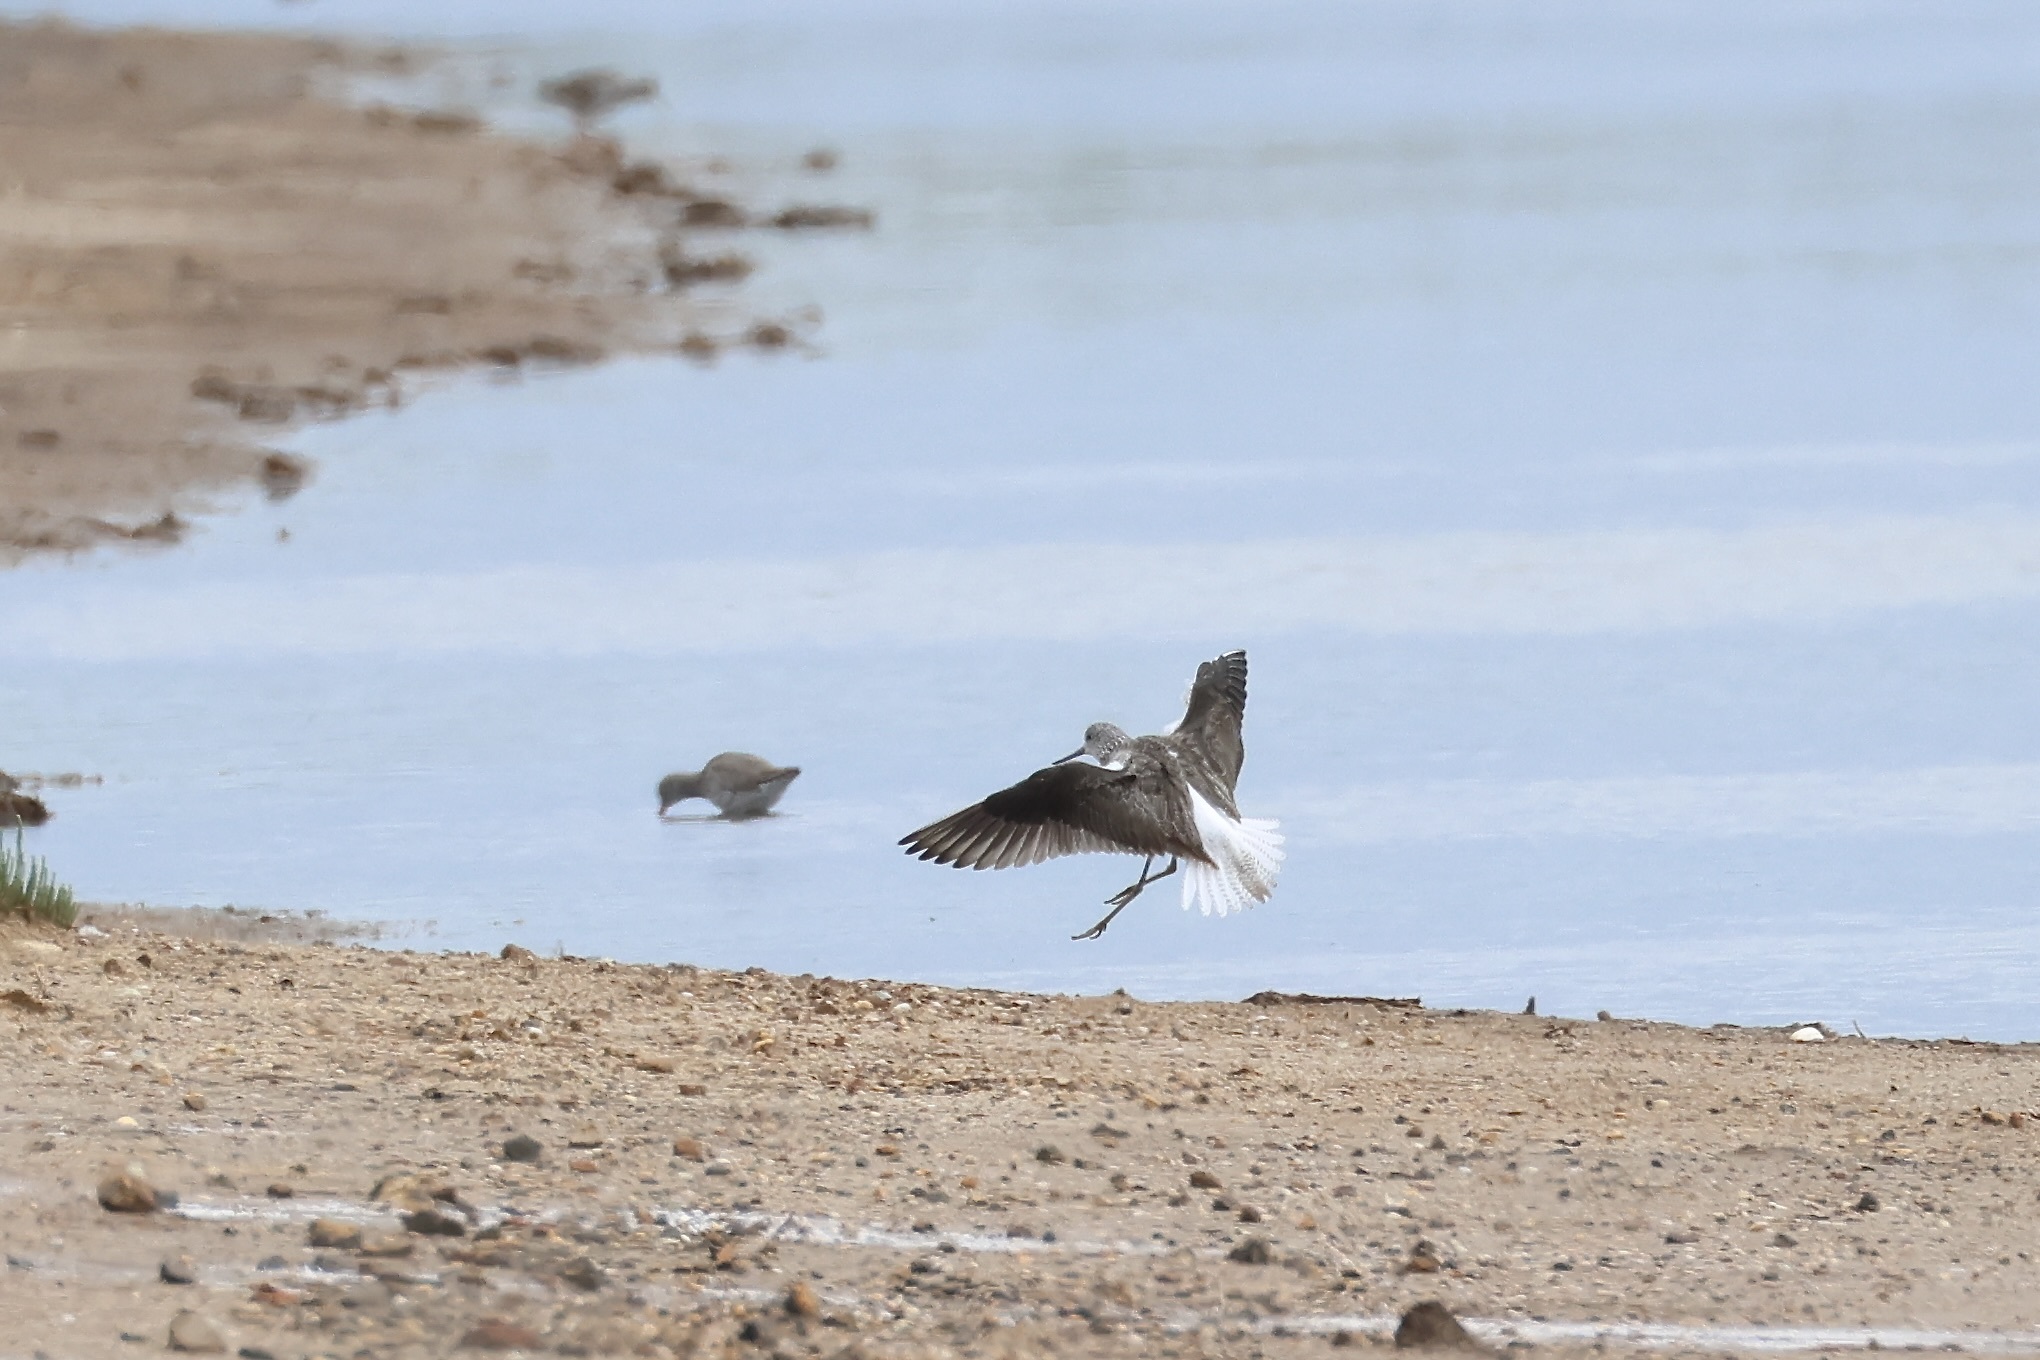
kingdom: Animalia
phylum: Chordata
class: Aves
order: Charadriiformes
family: Scolopacidae
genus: Tringa
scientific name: Tringa nebularia
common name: Common greenshank
